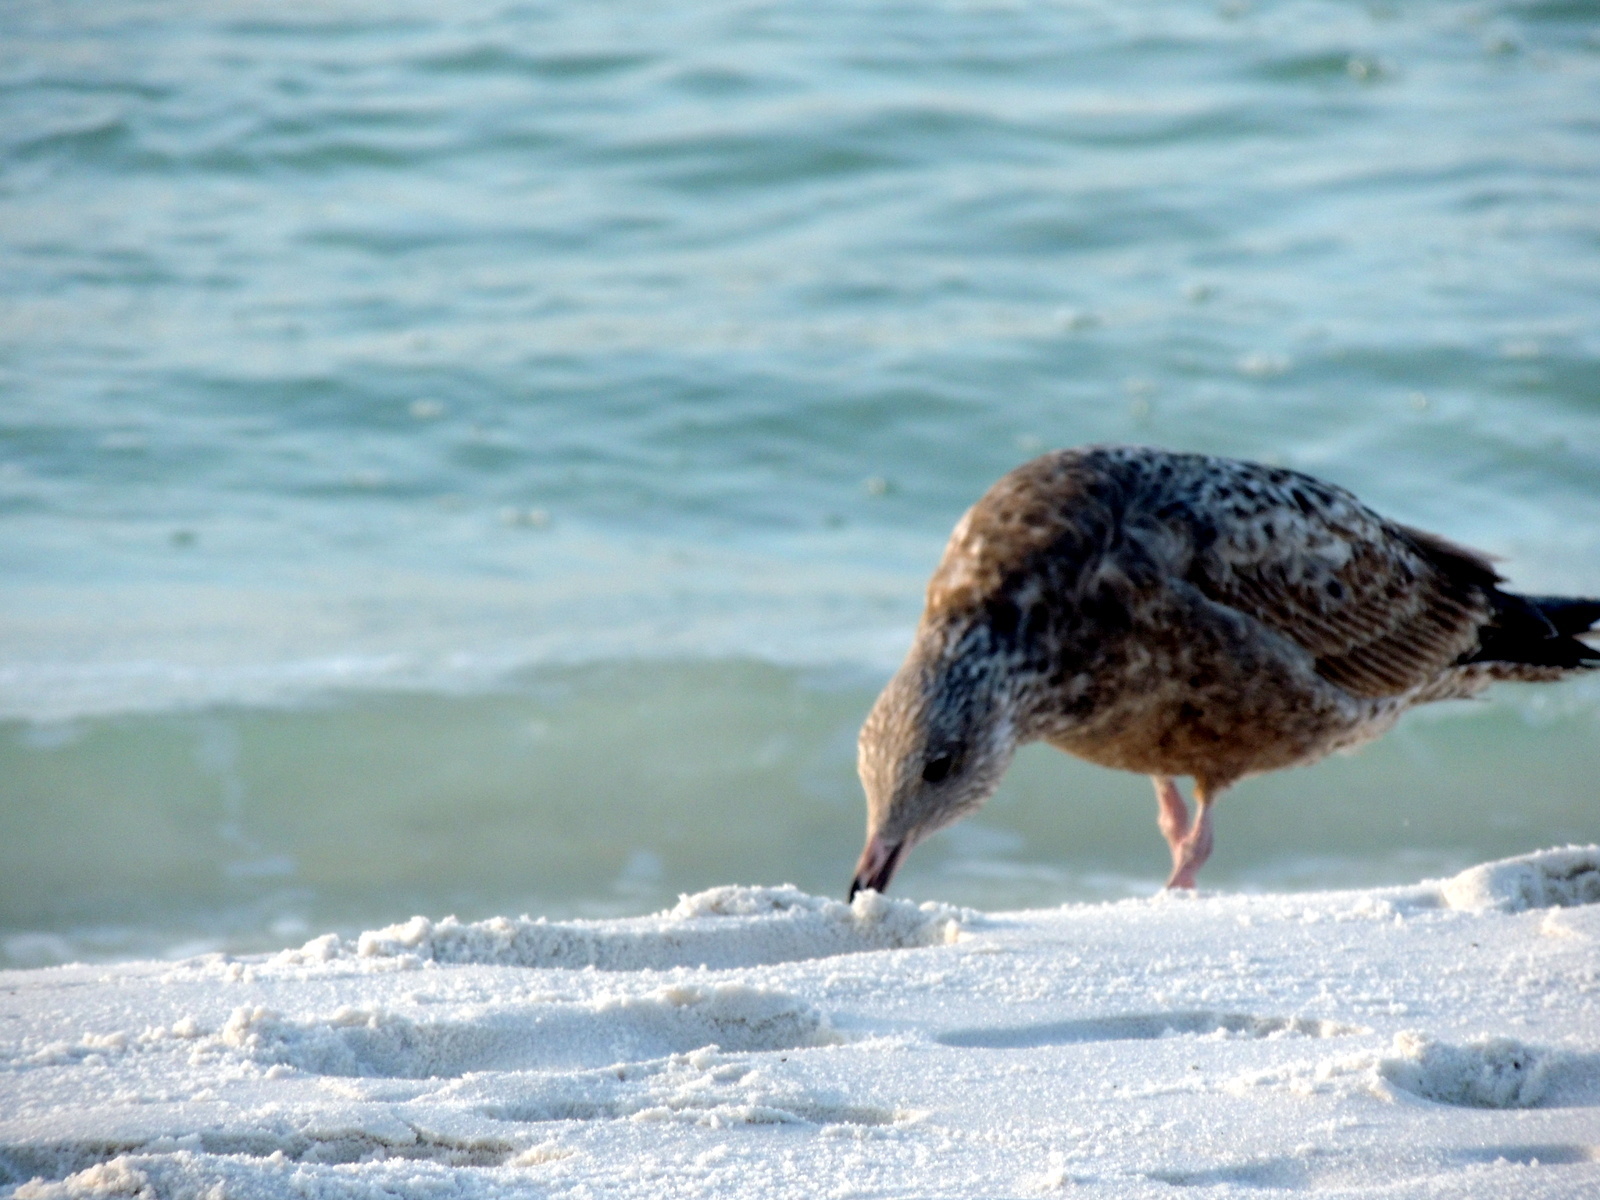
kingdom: Animalia
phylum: Chordata
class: Aves
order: Charadriiformes
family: Laridae
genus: Larus
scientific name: Larus smithsonianus
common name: American herring gull
